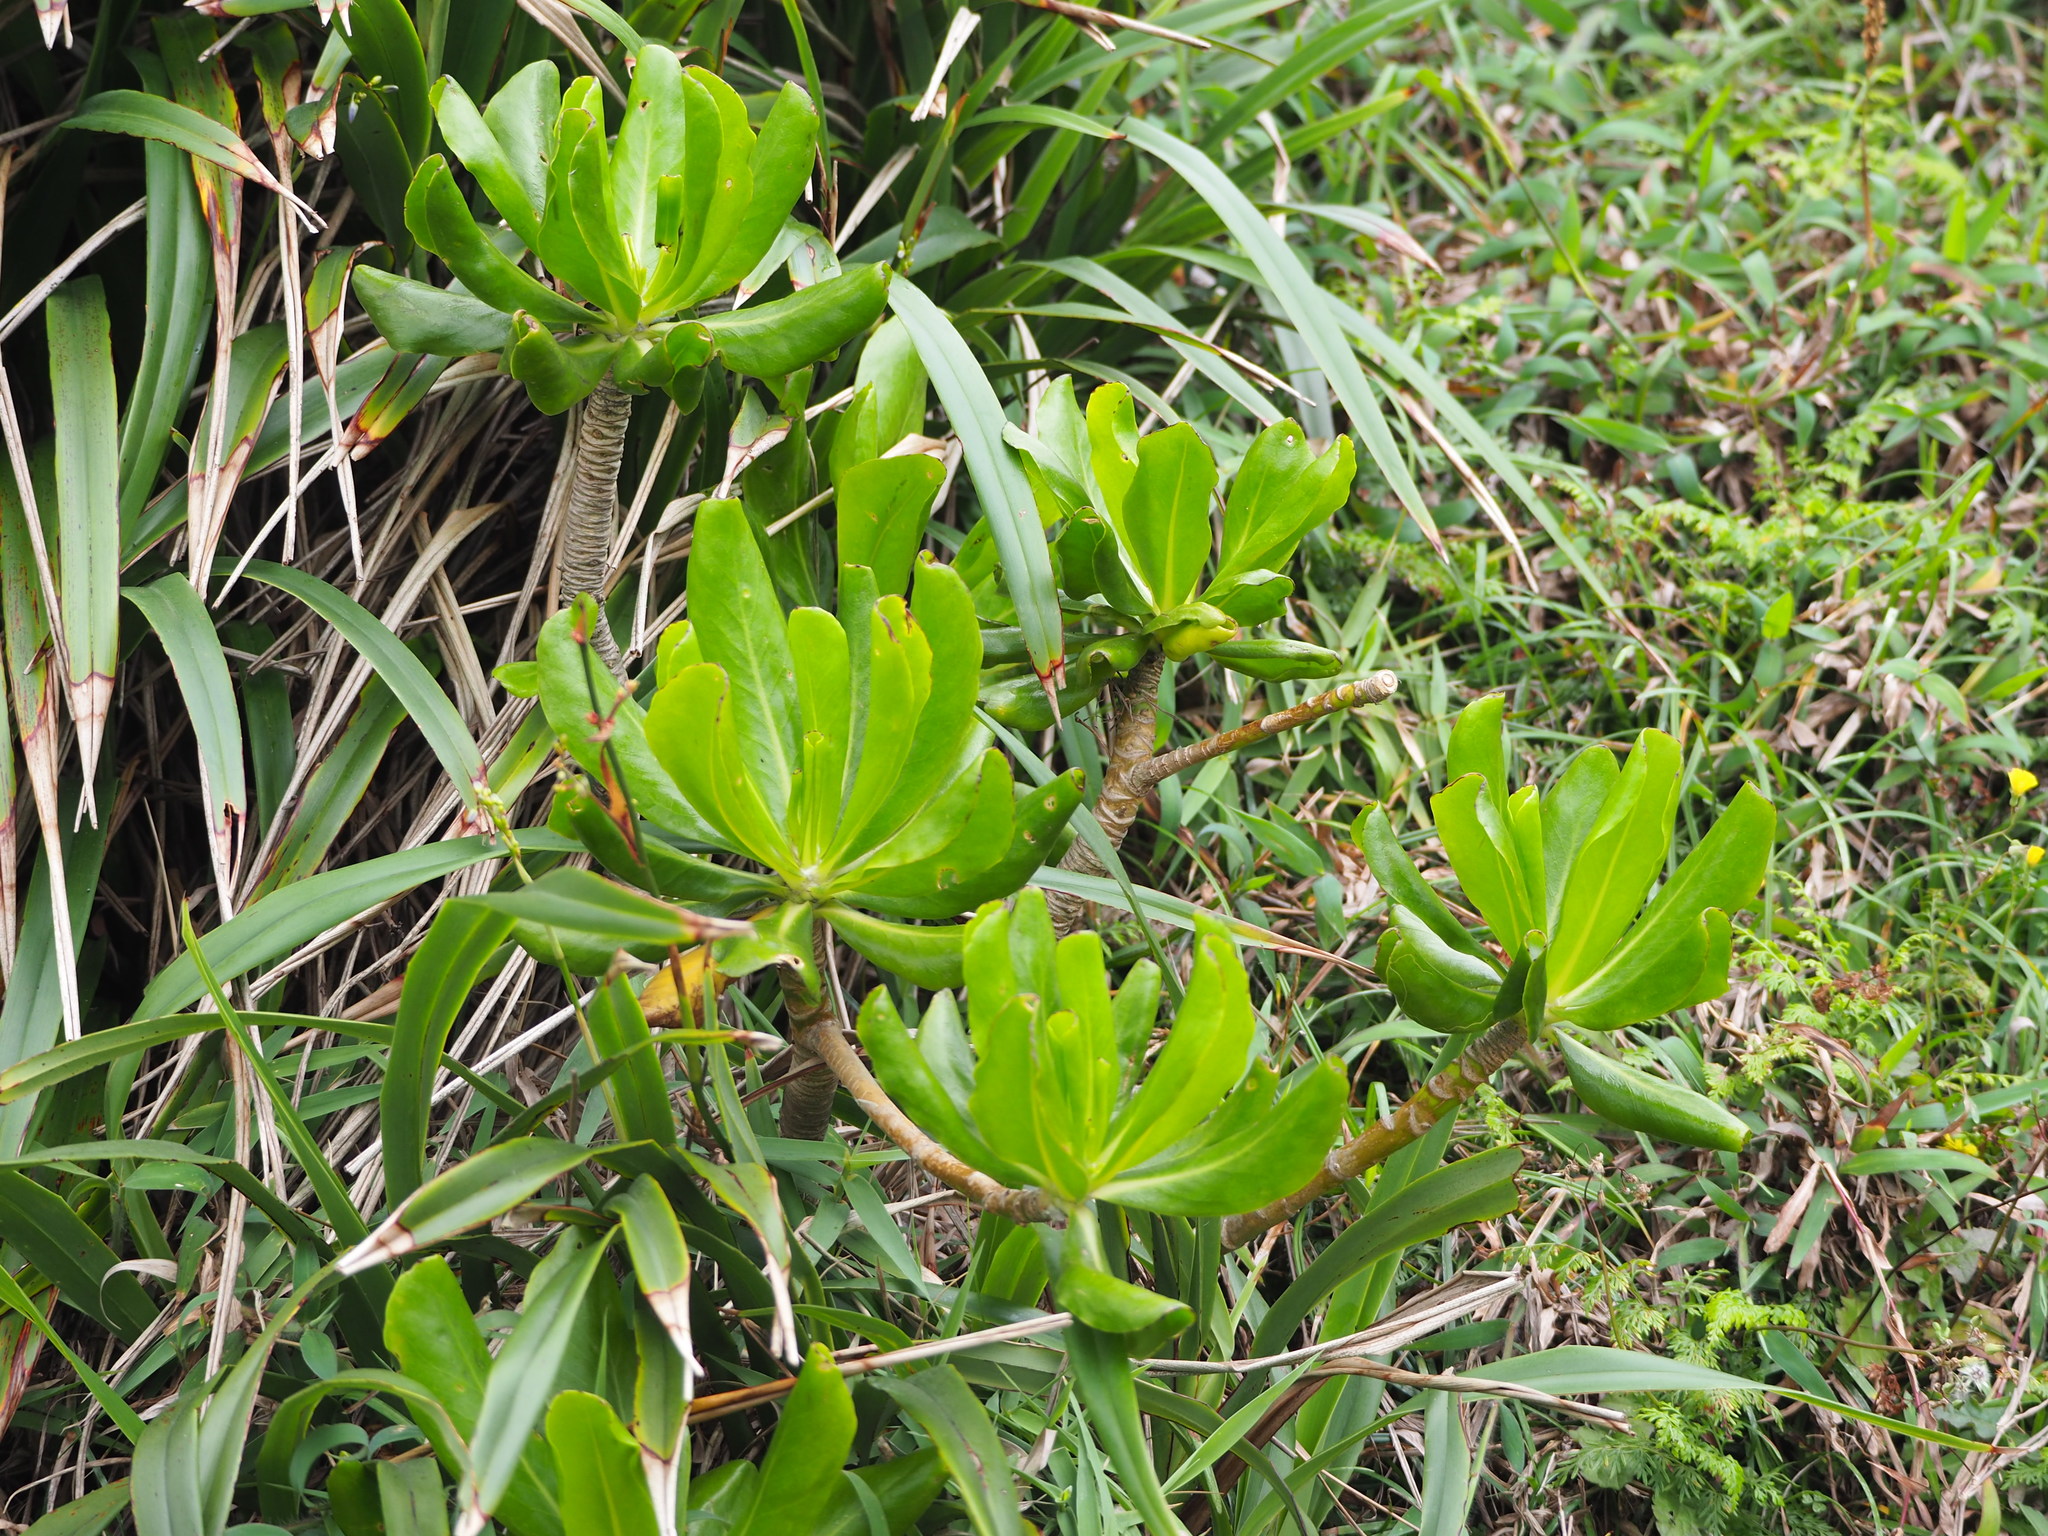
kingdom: Plantae
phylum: Tracheophyta
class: Magnoliopsida
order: Asterales
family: Goodeniaceae
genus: Scaevola
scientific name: Scaevola taccada
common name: Sea lettucetree
